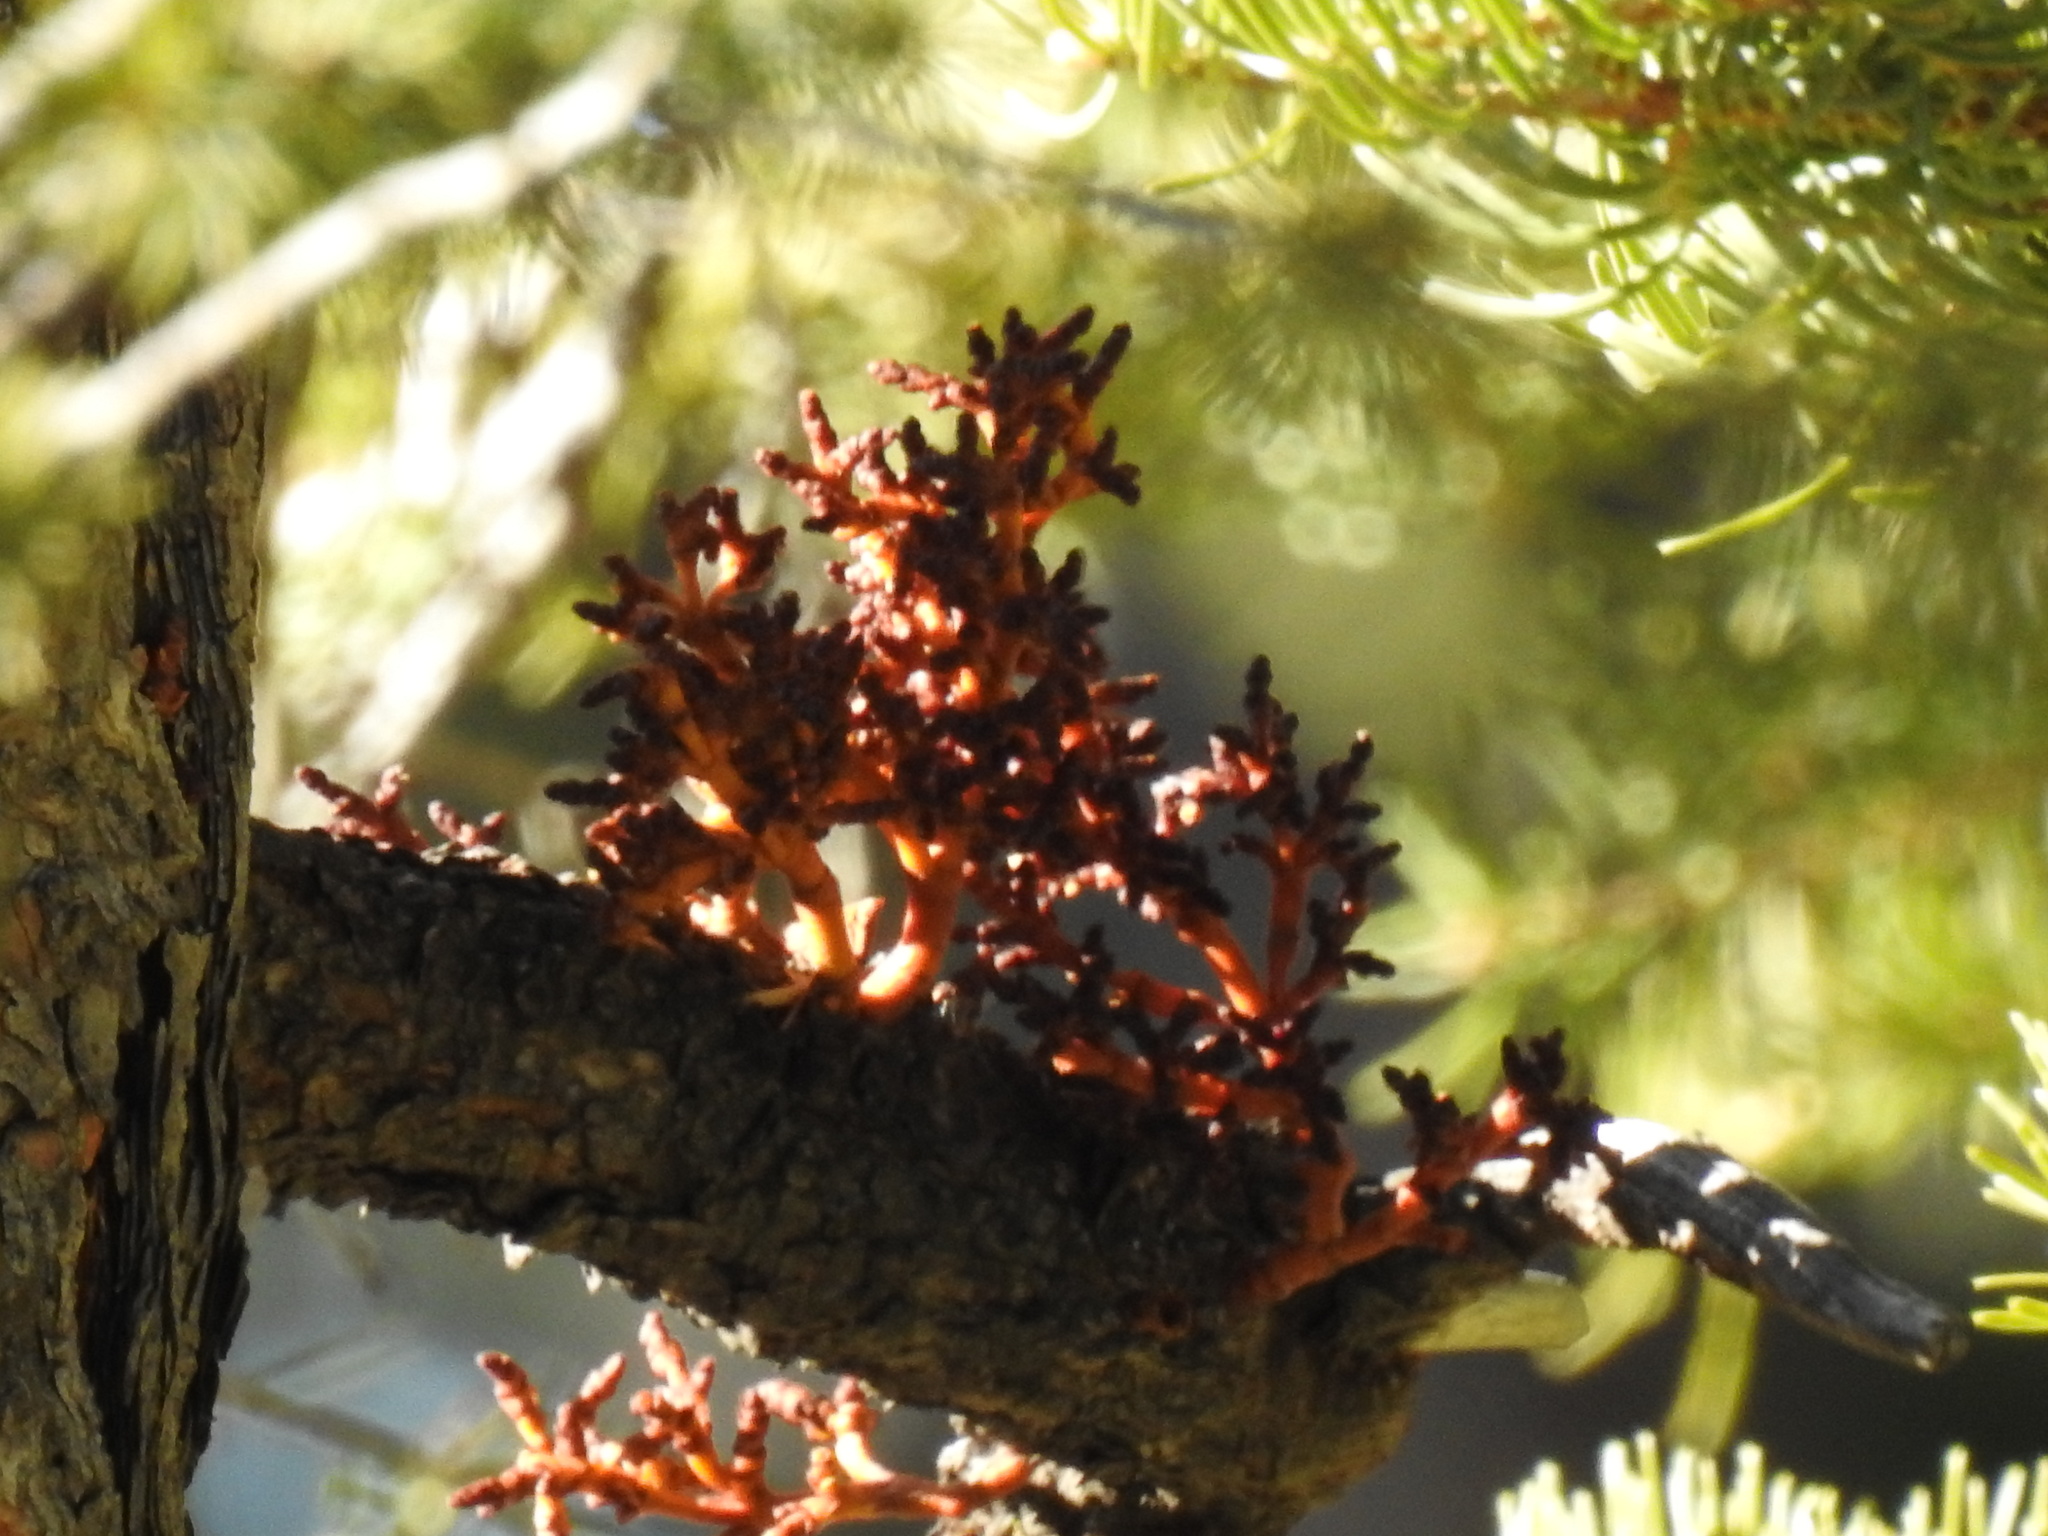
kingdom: Plantae
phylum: Tracheophyta
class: Magnoliopsida
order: Santalales
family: Viscaceae
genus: Arceuthobium
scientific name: Arceuthobium campylopodum
